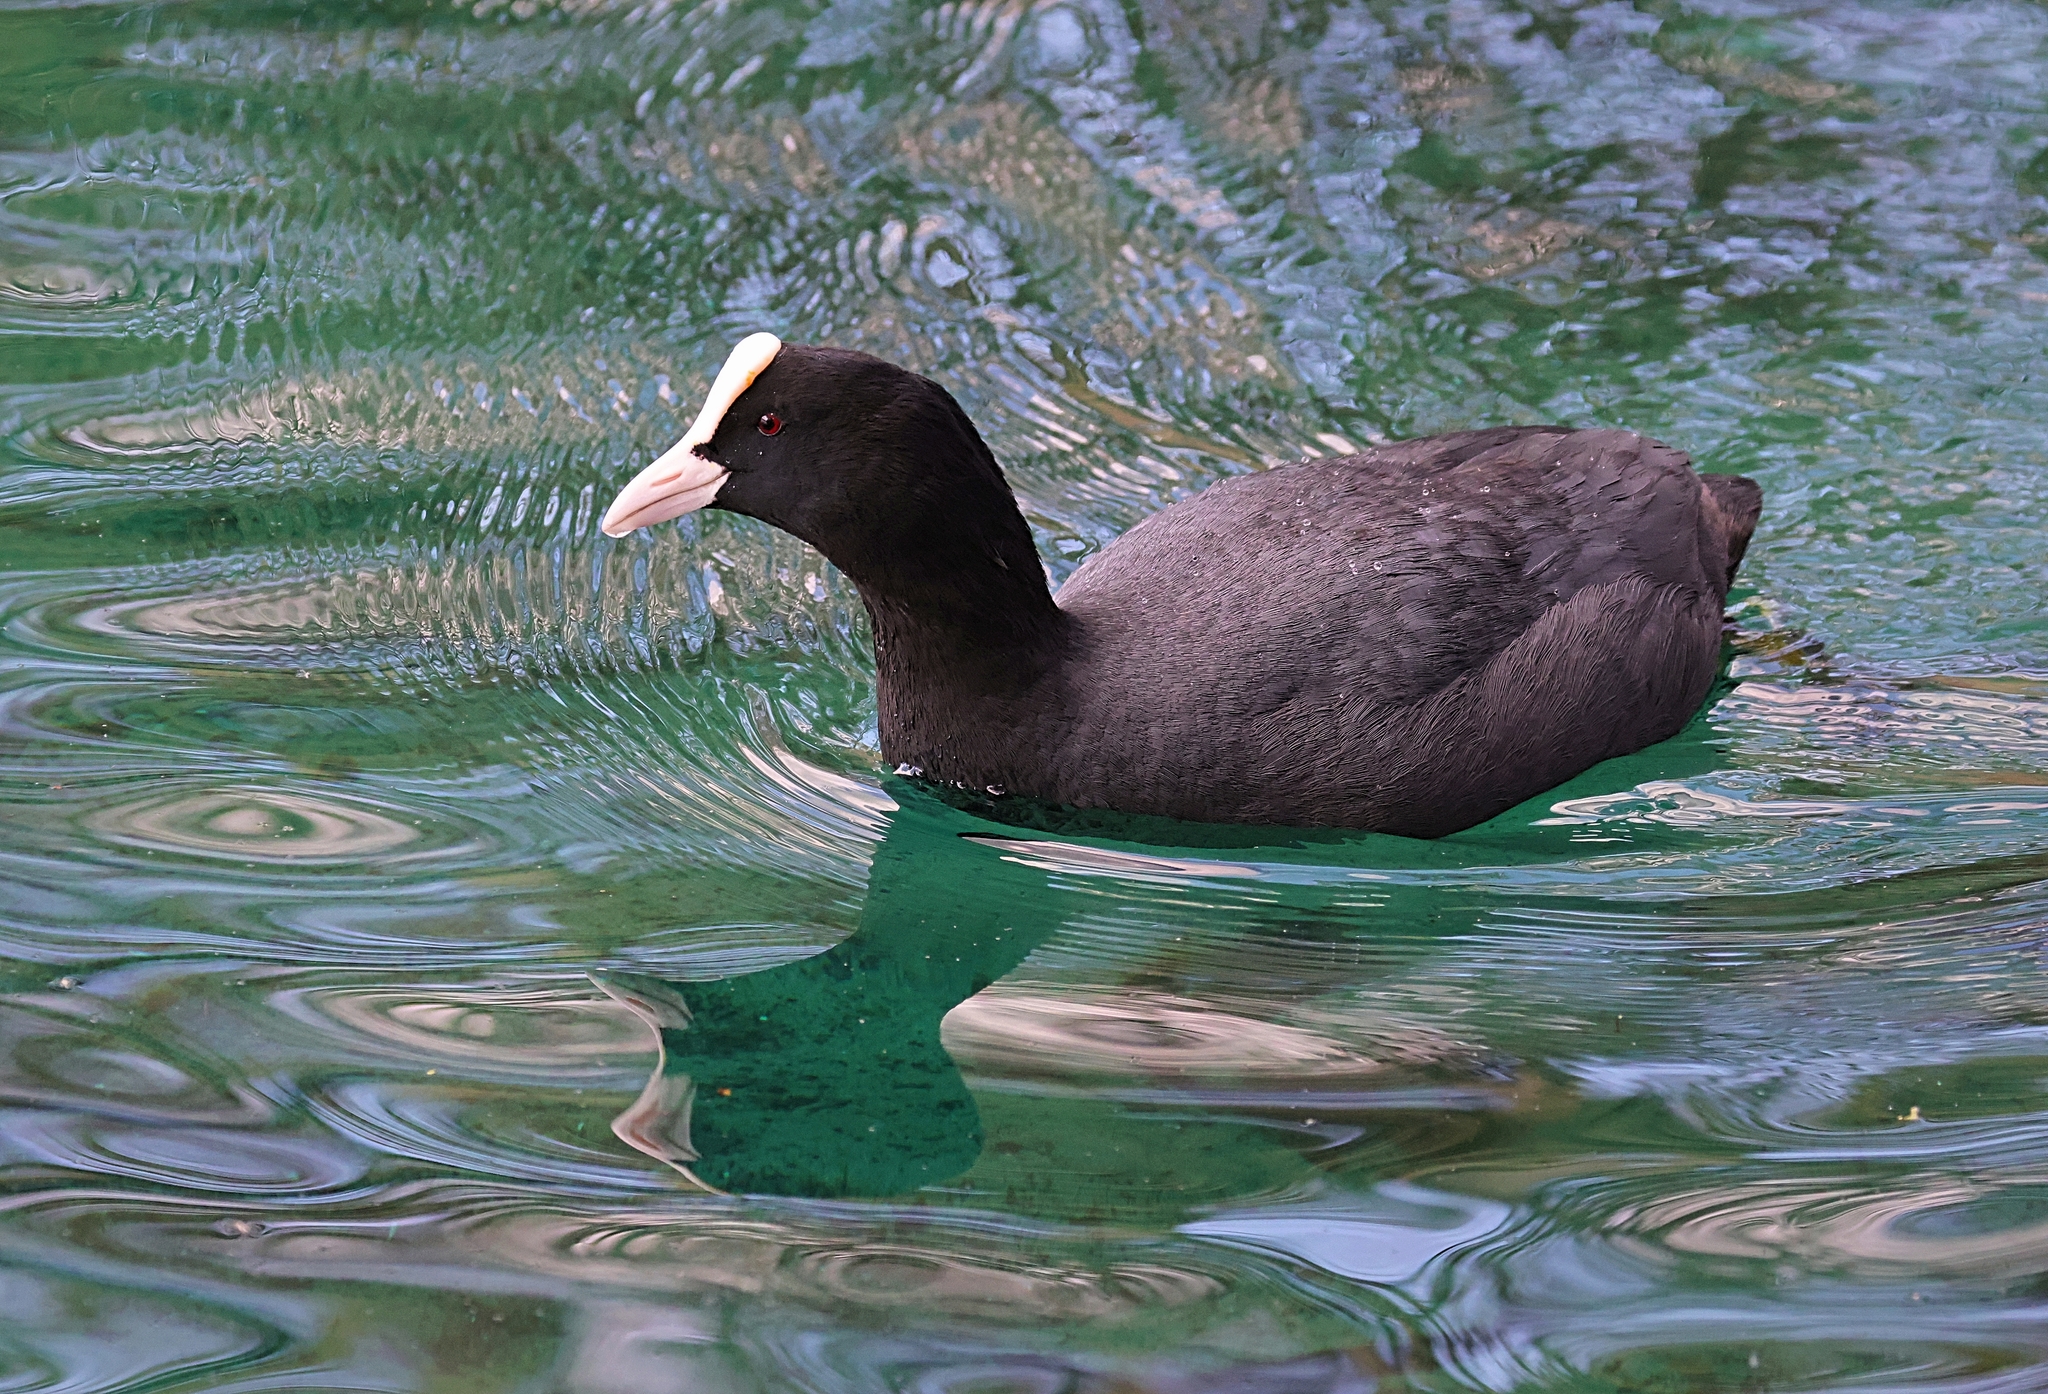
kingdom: Animalia
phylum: Chordata
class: Aves
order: Gruiformes
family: Rallidae
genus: Fulica
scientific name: Fulica atra
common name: Eurasian coot
